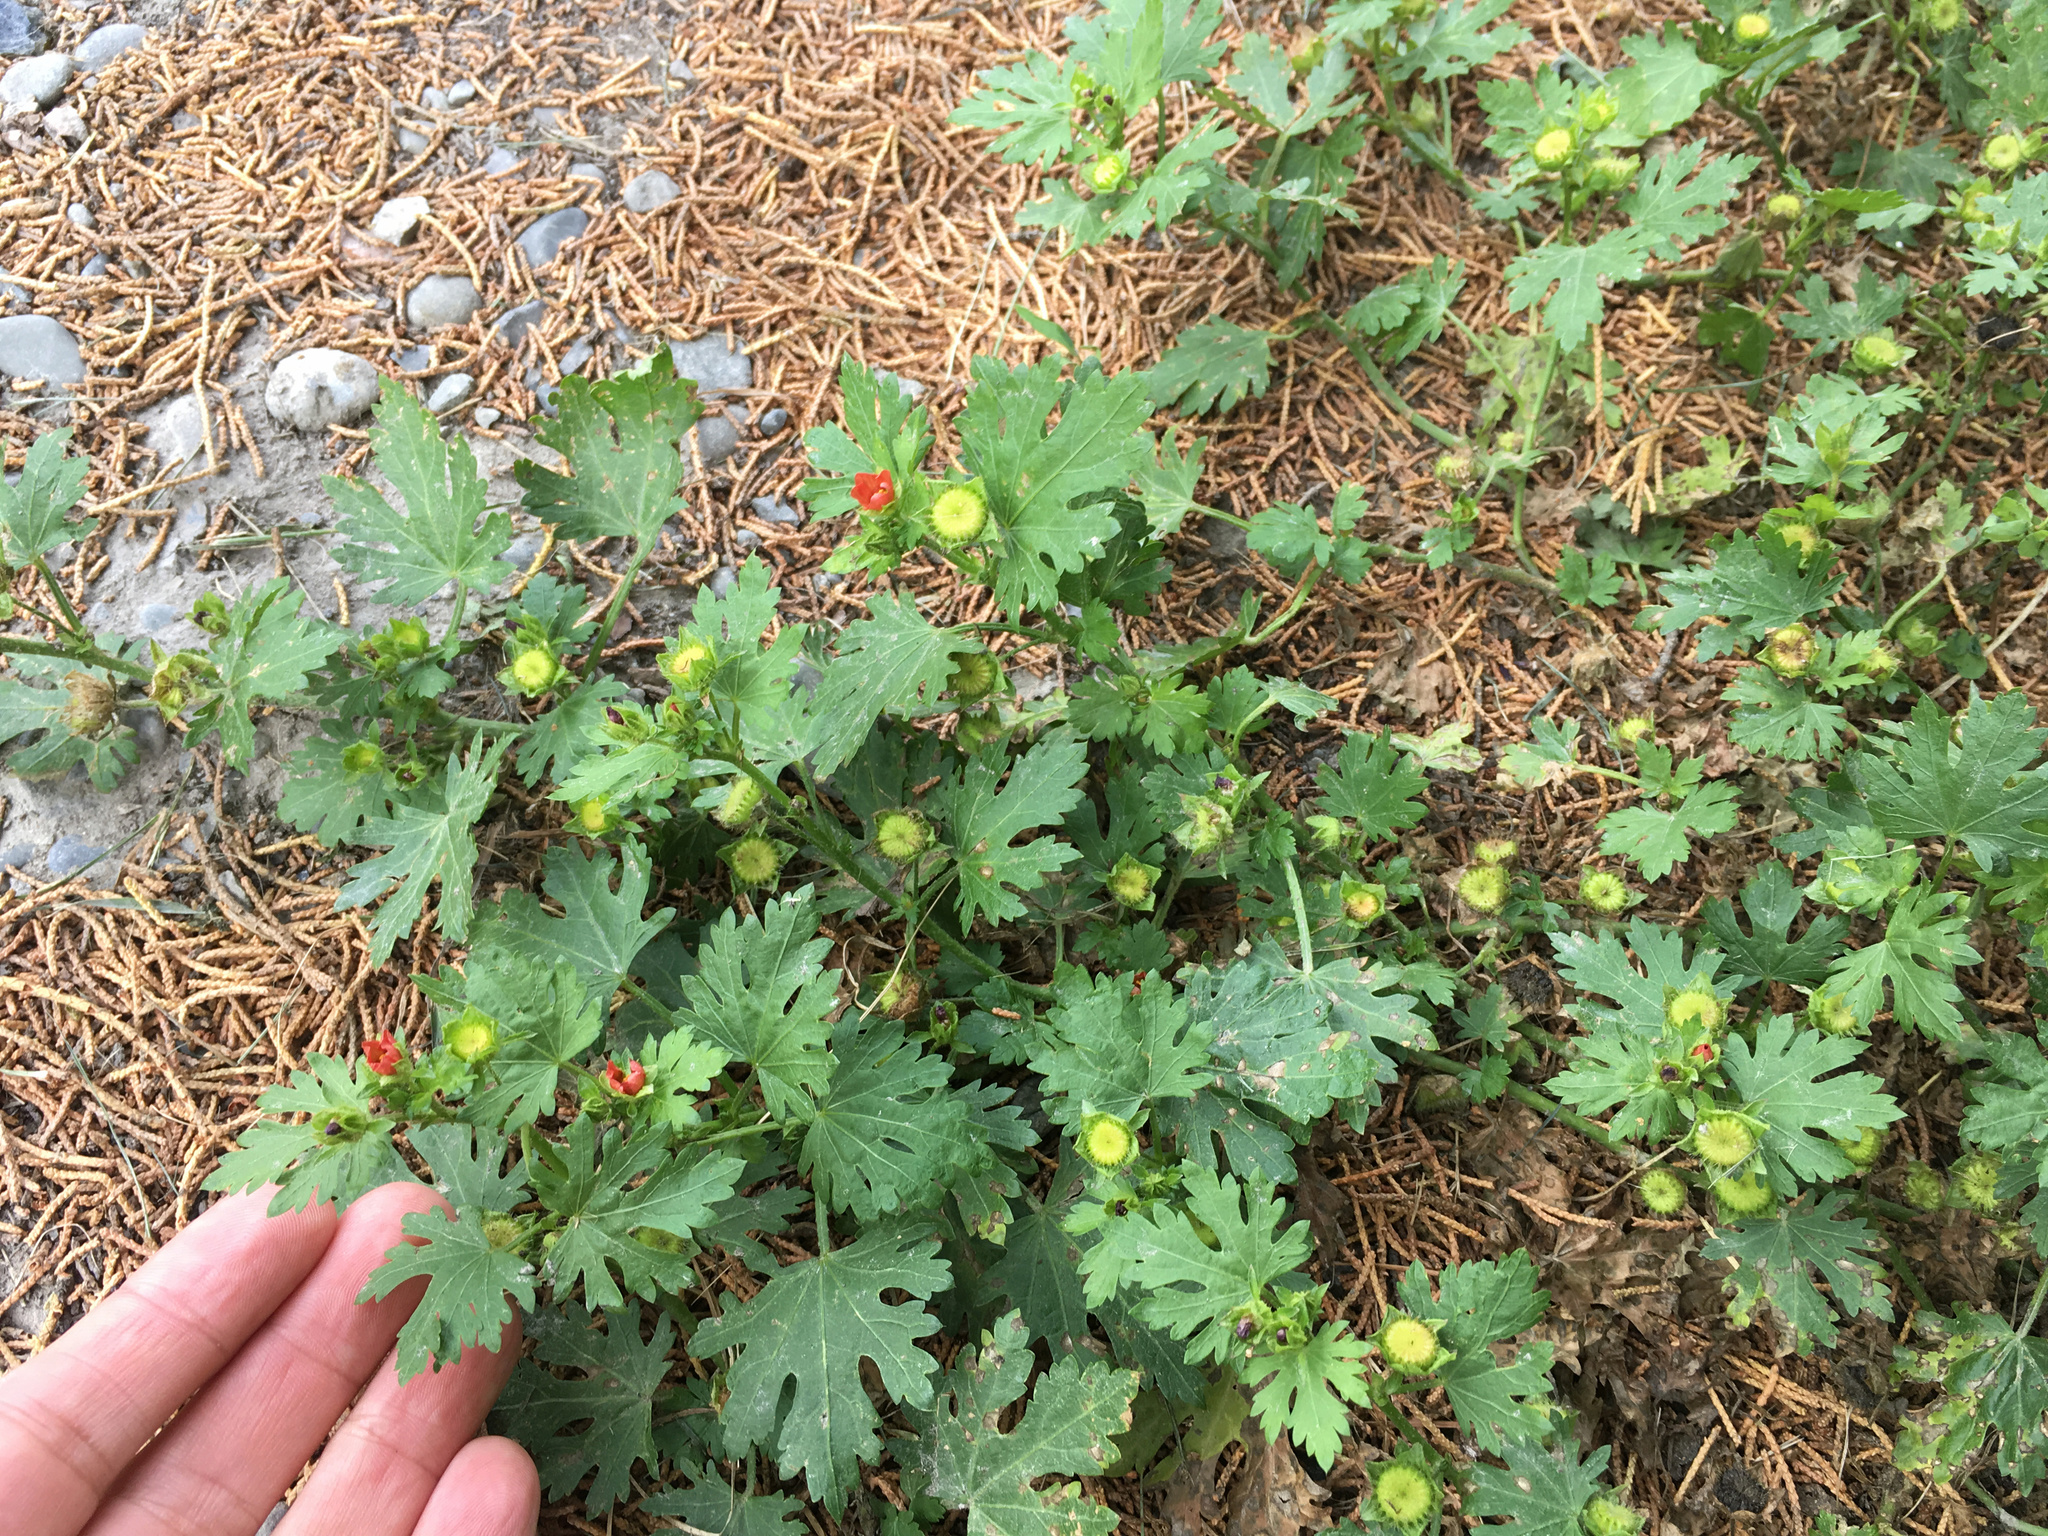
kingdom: Plantae
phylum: Tracheophyta
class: Magnoliopsida
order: Malvales
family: Malvaceae
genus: Modiola
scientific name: Modiola caroliniana
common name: Carolina bristlemallow
